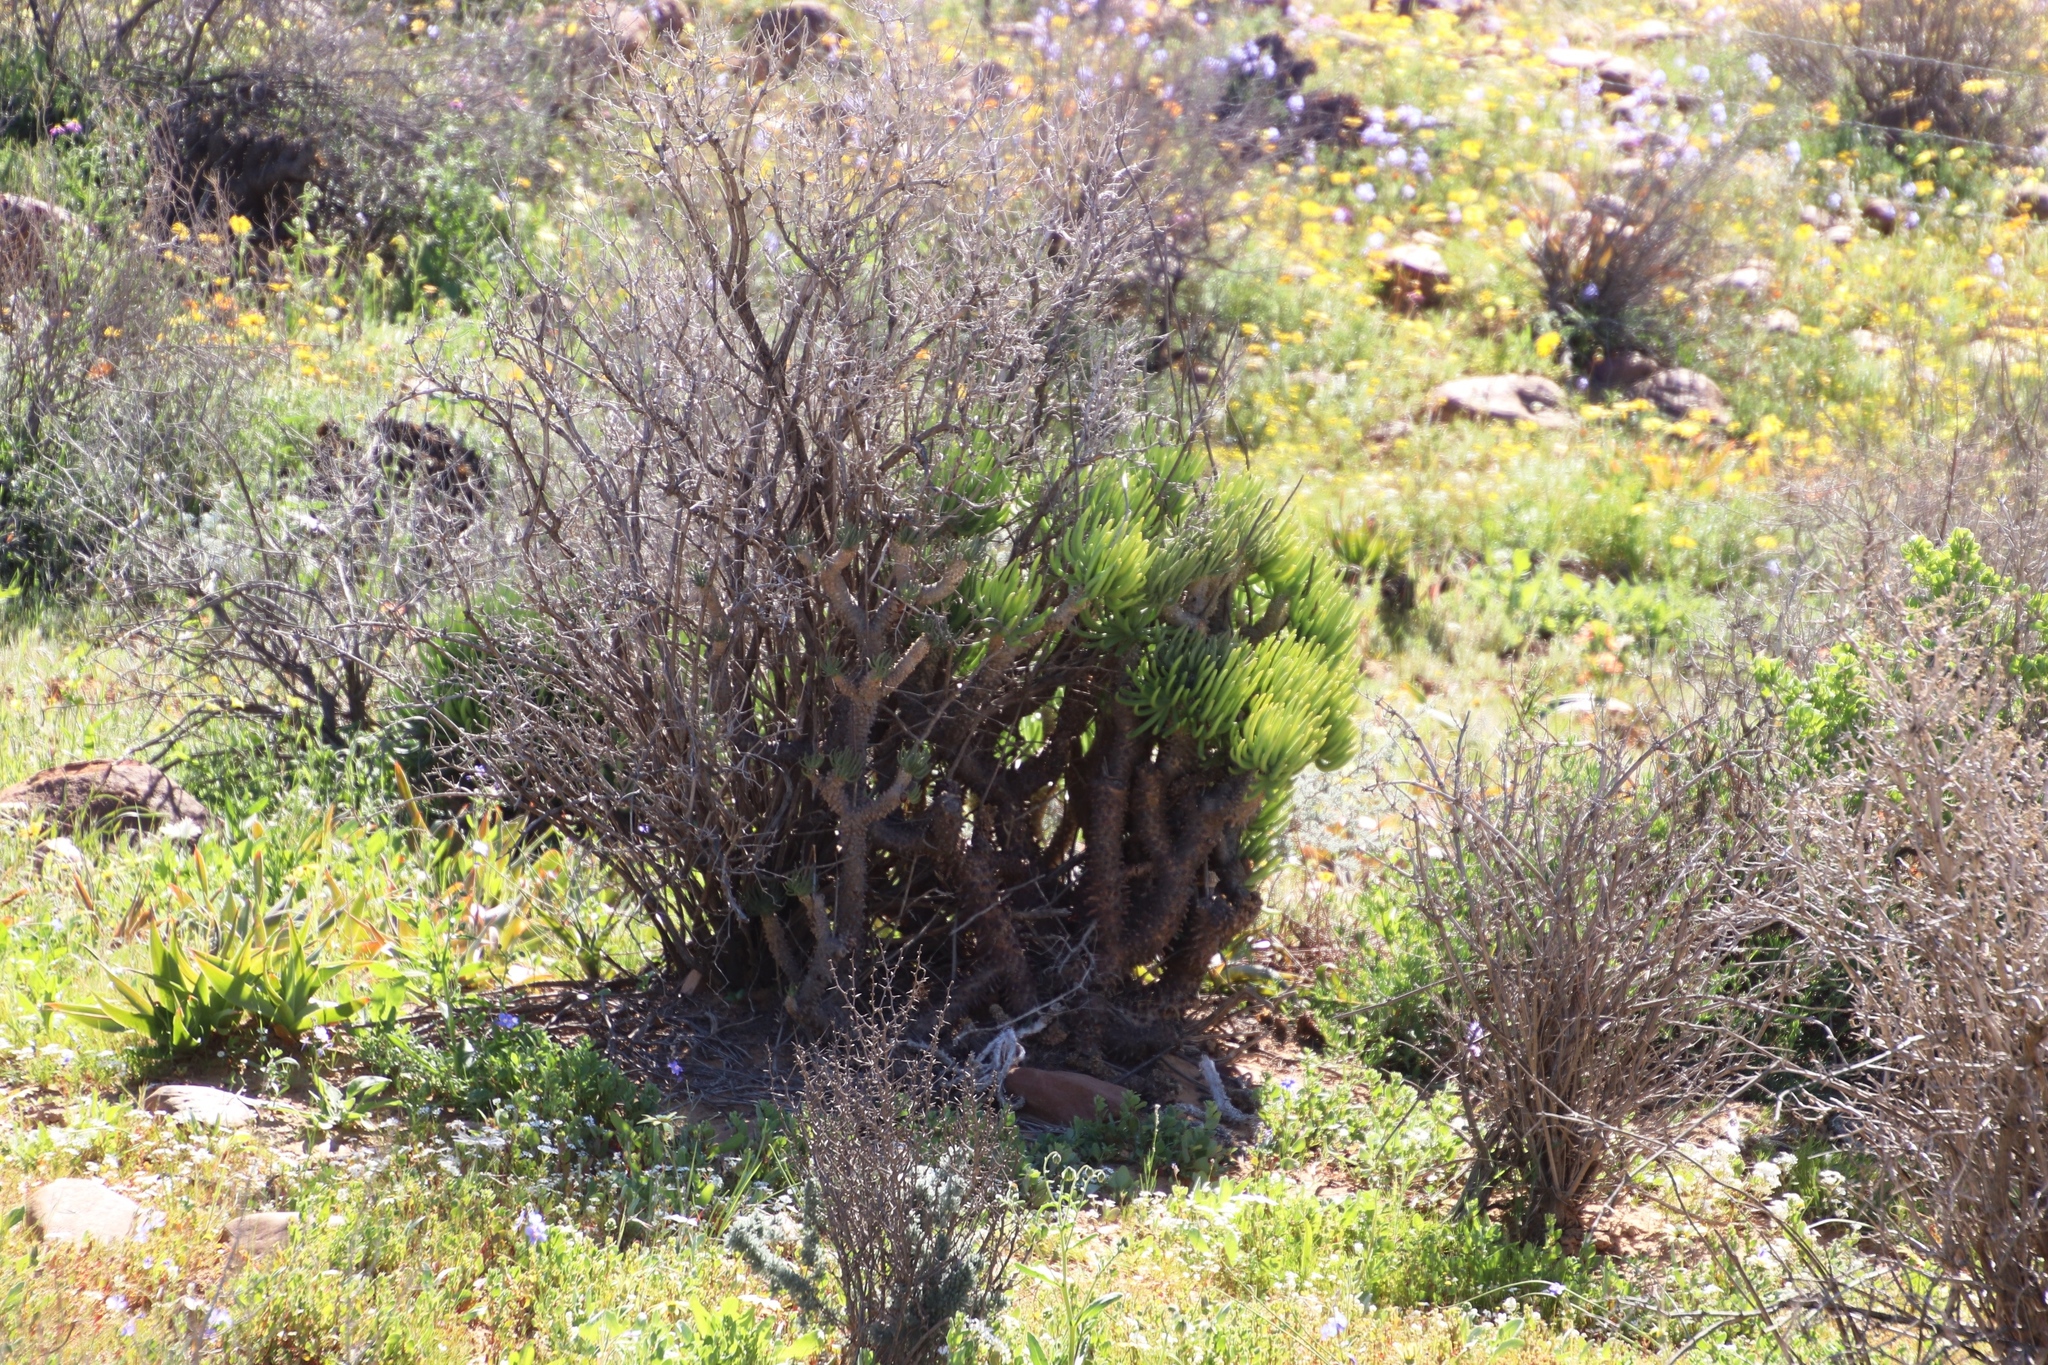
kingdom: Plantae
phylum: Tracheophyta
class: Magnoliopsida
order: Saxifragales
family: Crassulaceae
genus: Tylecodon
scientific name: Tylecodon wallichii
